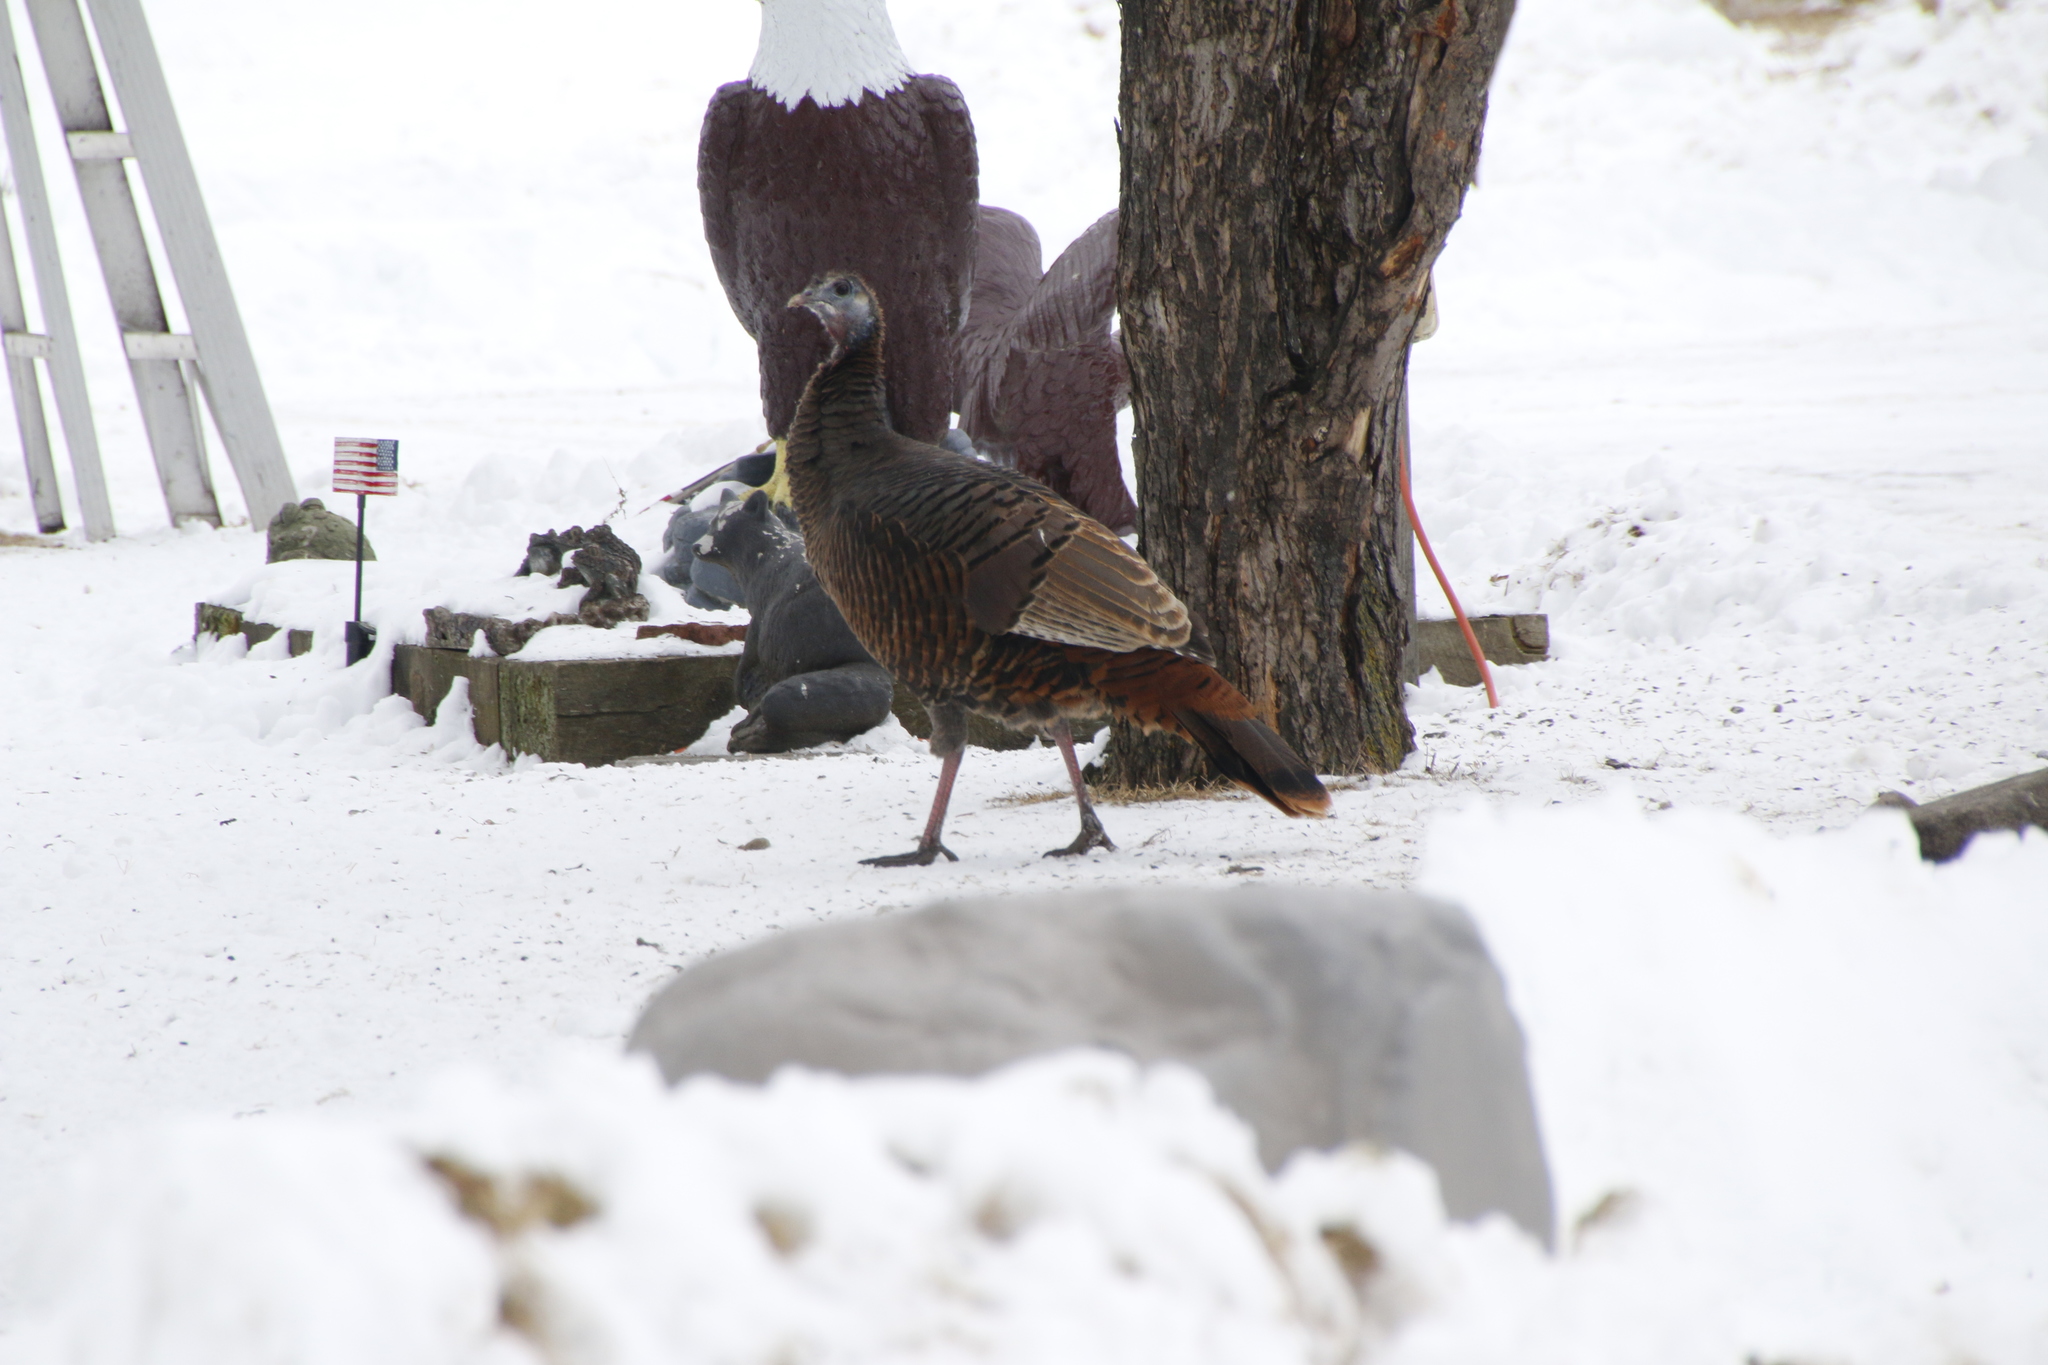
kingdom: Animalia
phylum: Chordata
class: Aves
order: Galliformes
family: Phasianidae
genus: Meleagris
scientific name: Meleagris gallopavo
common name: Wild turkey
